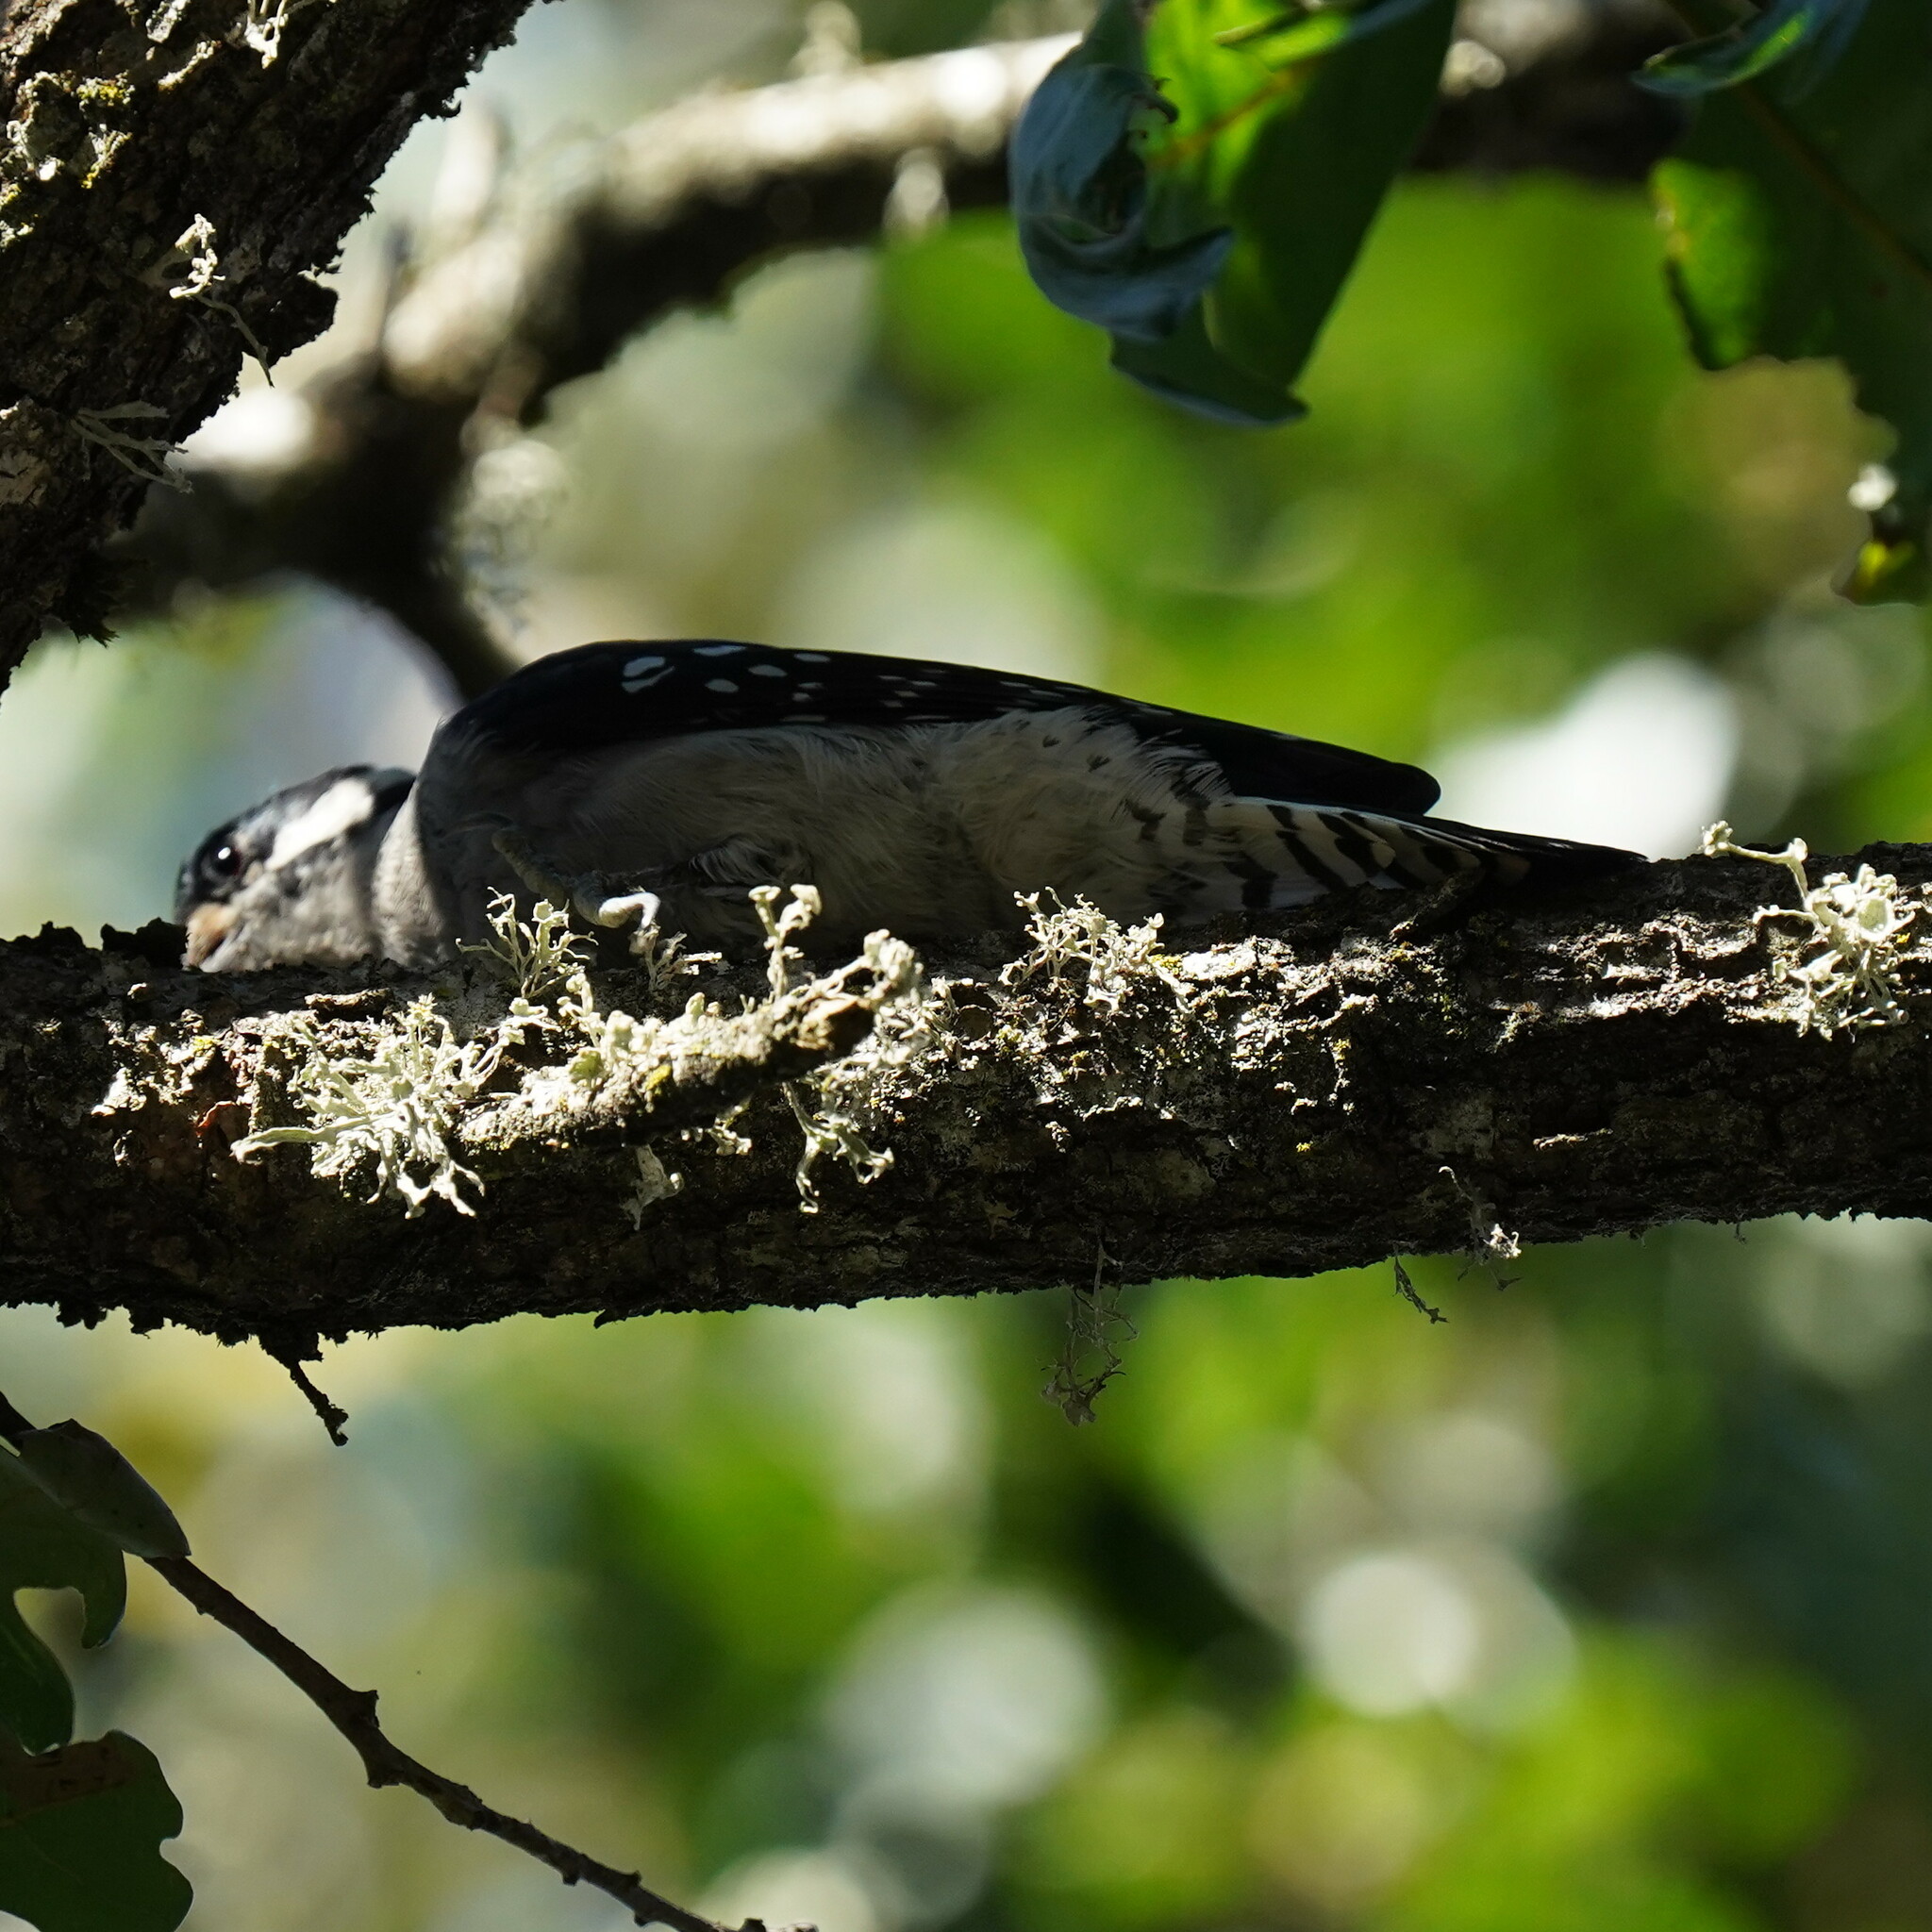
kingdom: Animalia
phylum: Chordata
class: Aves
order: Piciformes
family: Picidae
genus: Dryobates
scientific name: Dryobates pubescens
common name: Downy woodpecker
